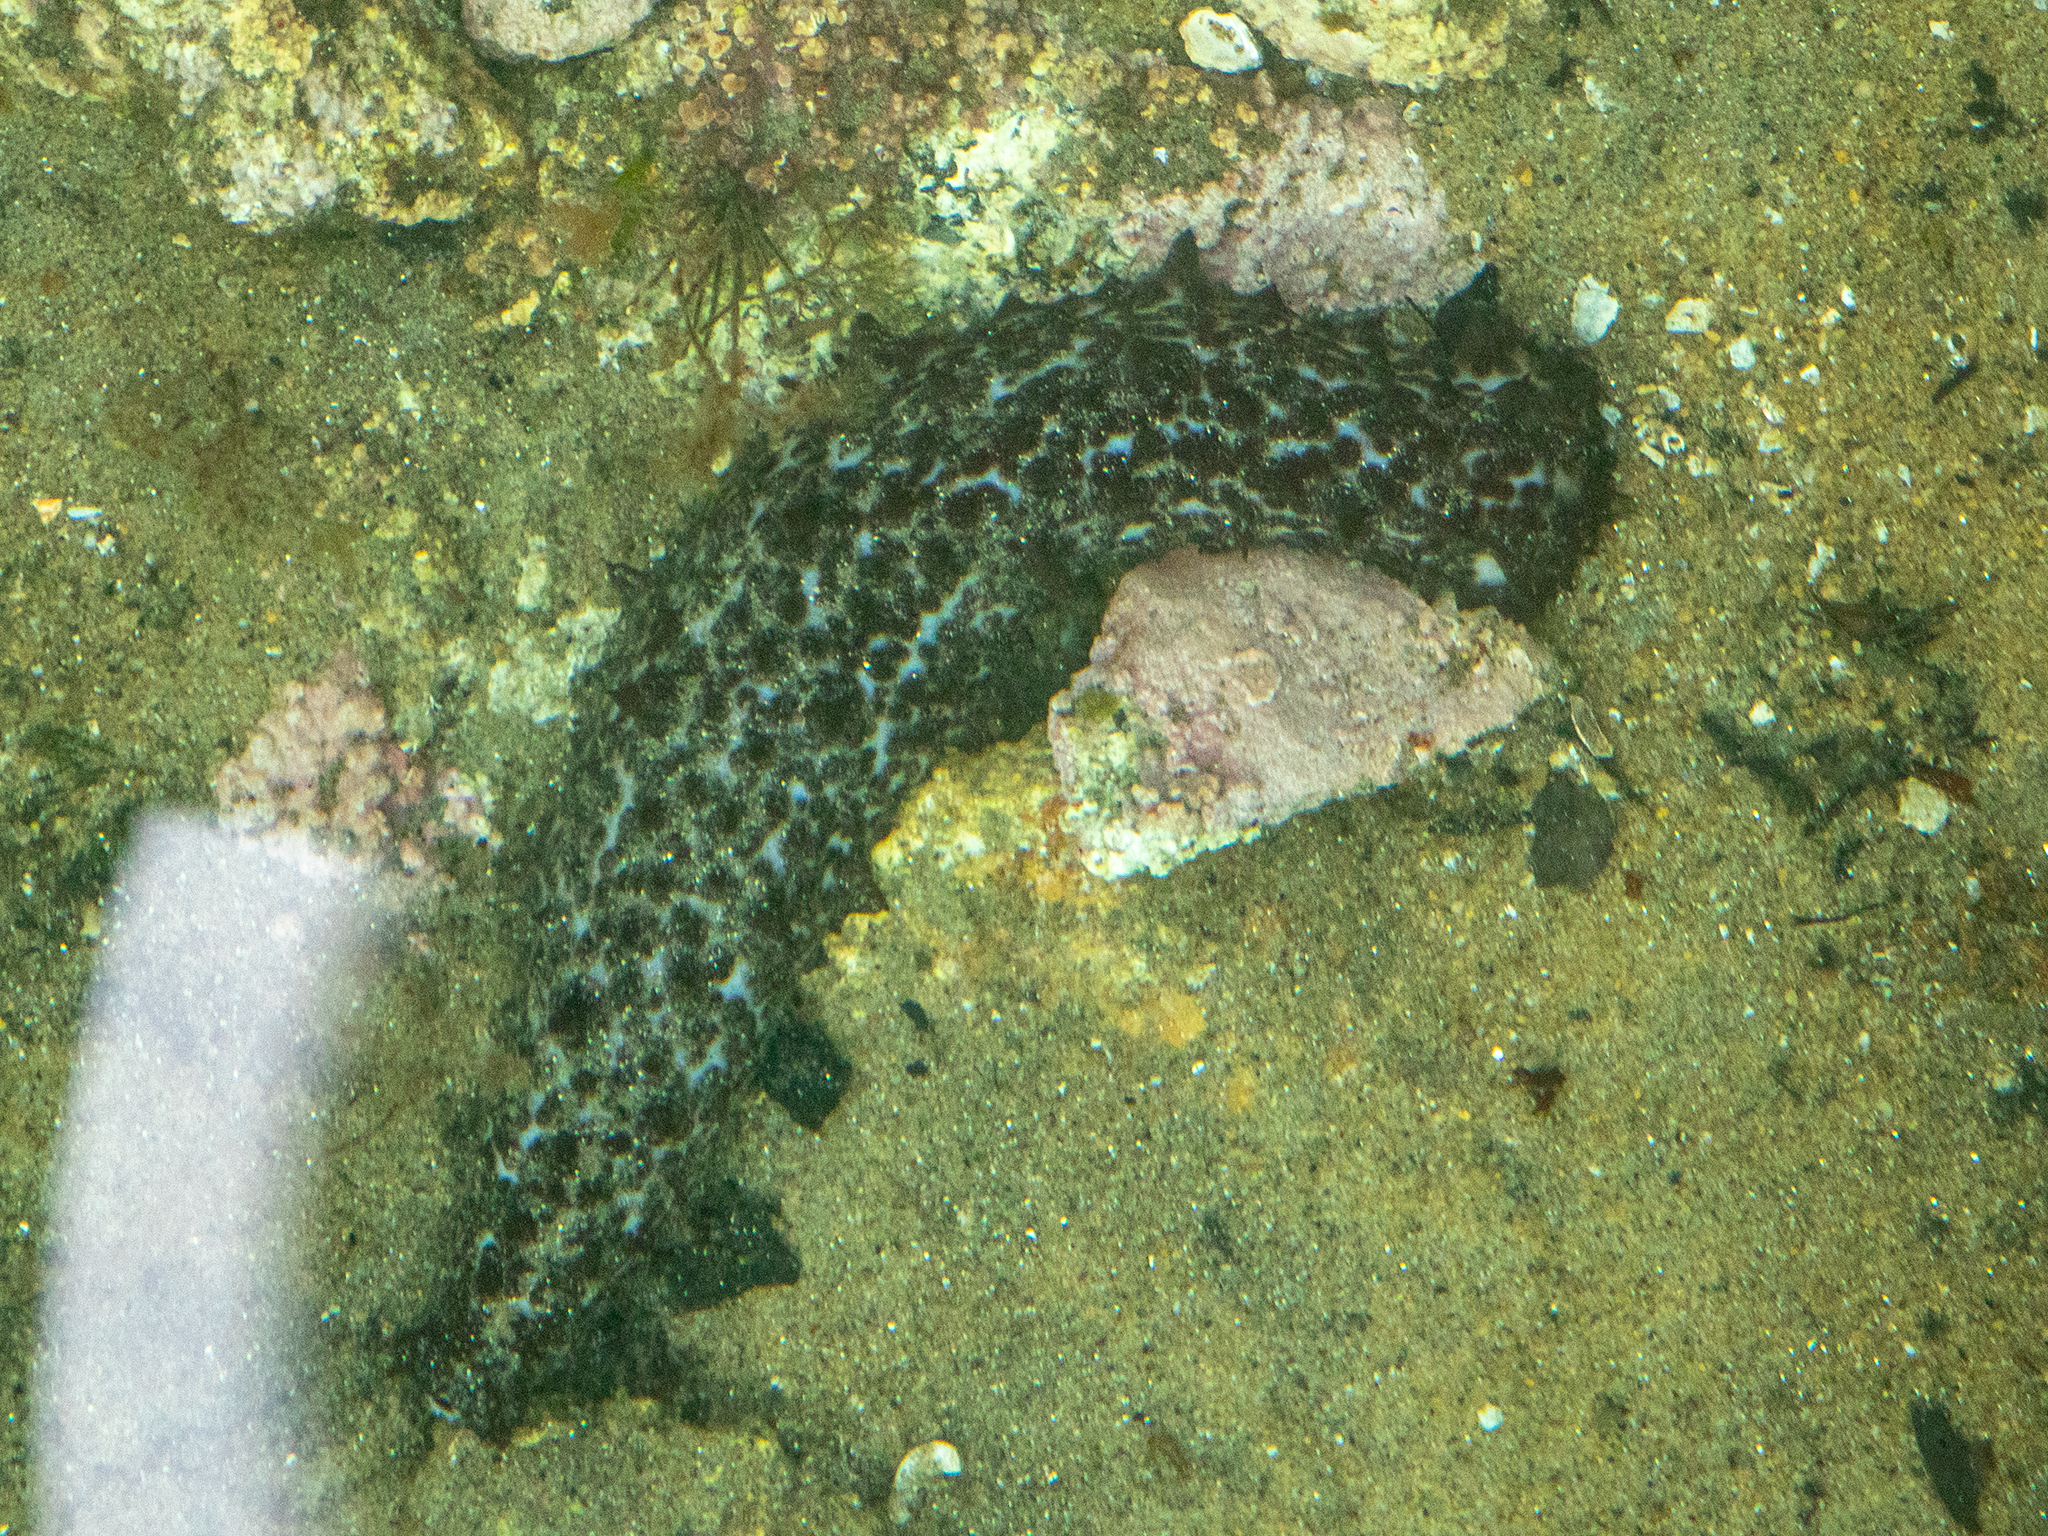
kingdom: Animalia
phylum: Echinodermata
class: Holothuroidea
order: Synallactida
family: Stichopodidae
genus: Australostichopus
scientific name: Australostichopus mollis
